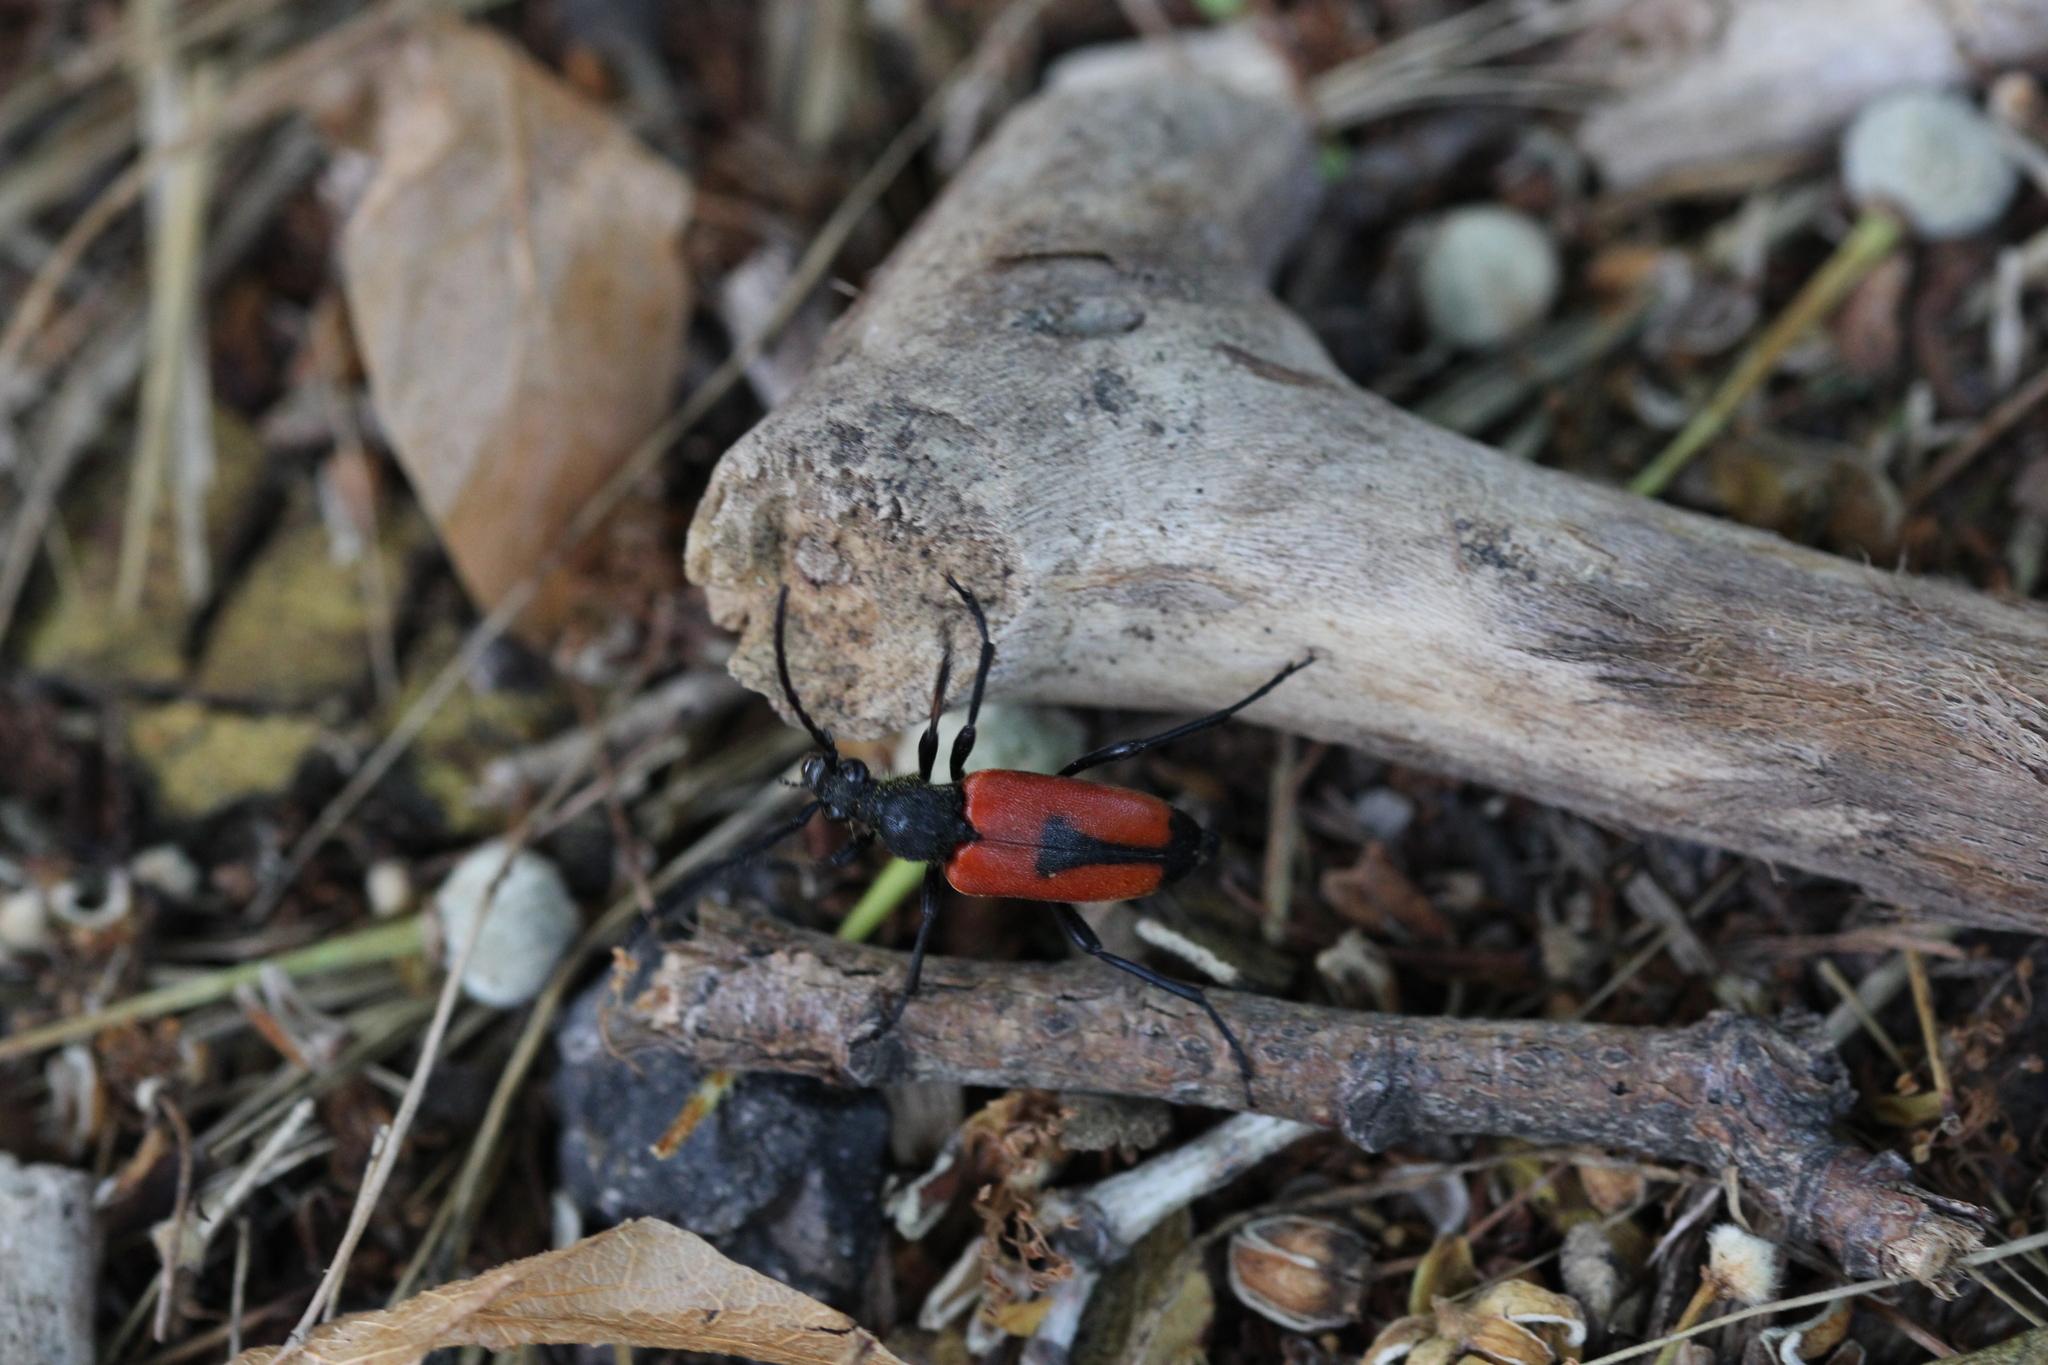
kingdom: Animalia
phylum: Arthropoda
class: Insecta
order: Coleoptera
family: Cerambycidae
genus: Stictoleptura
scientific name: Stictoleptura cordigera
